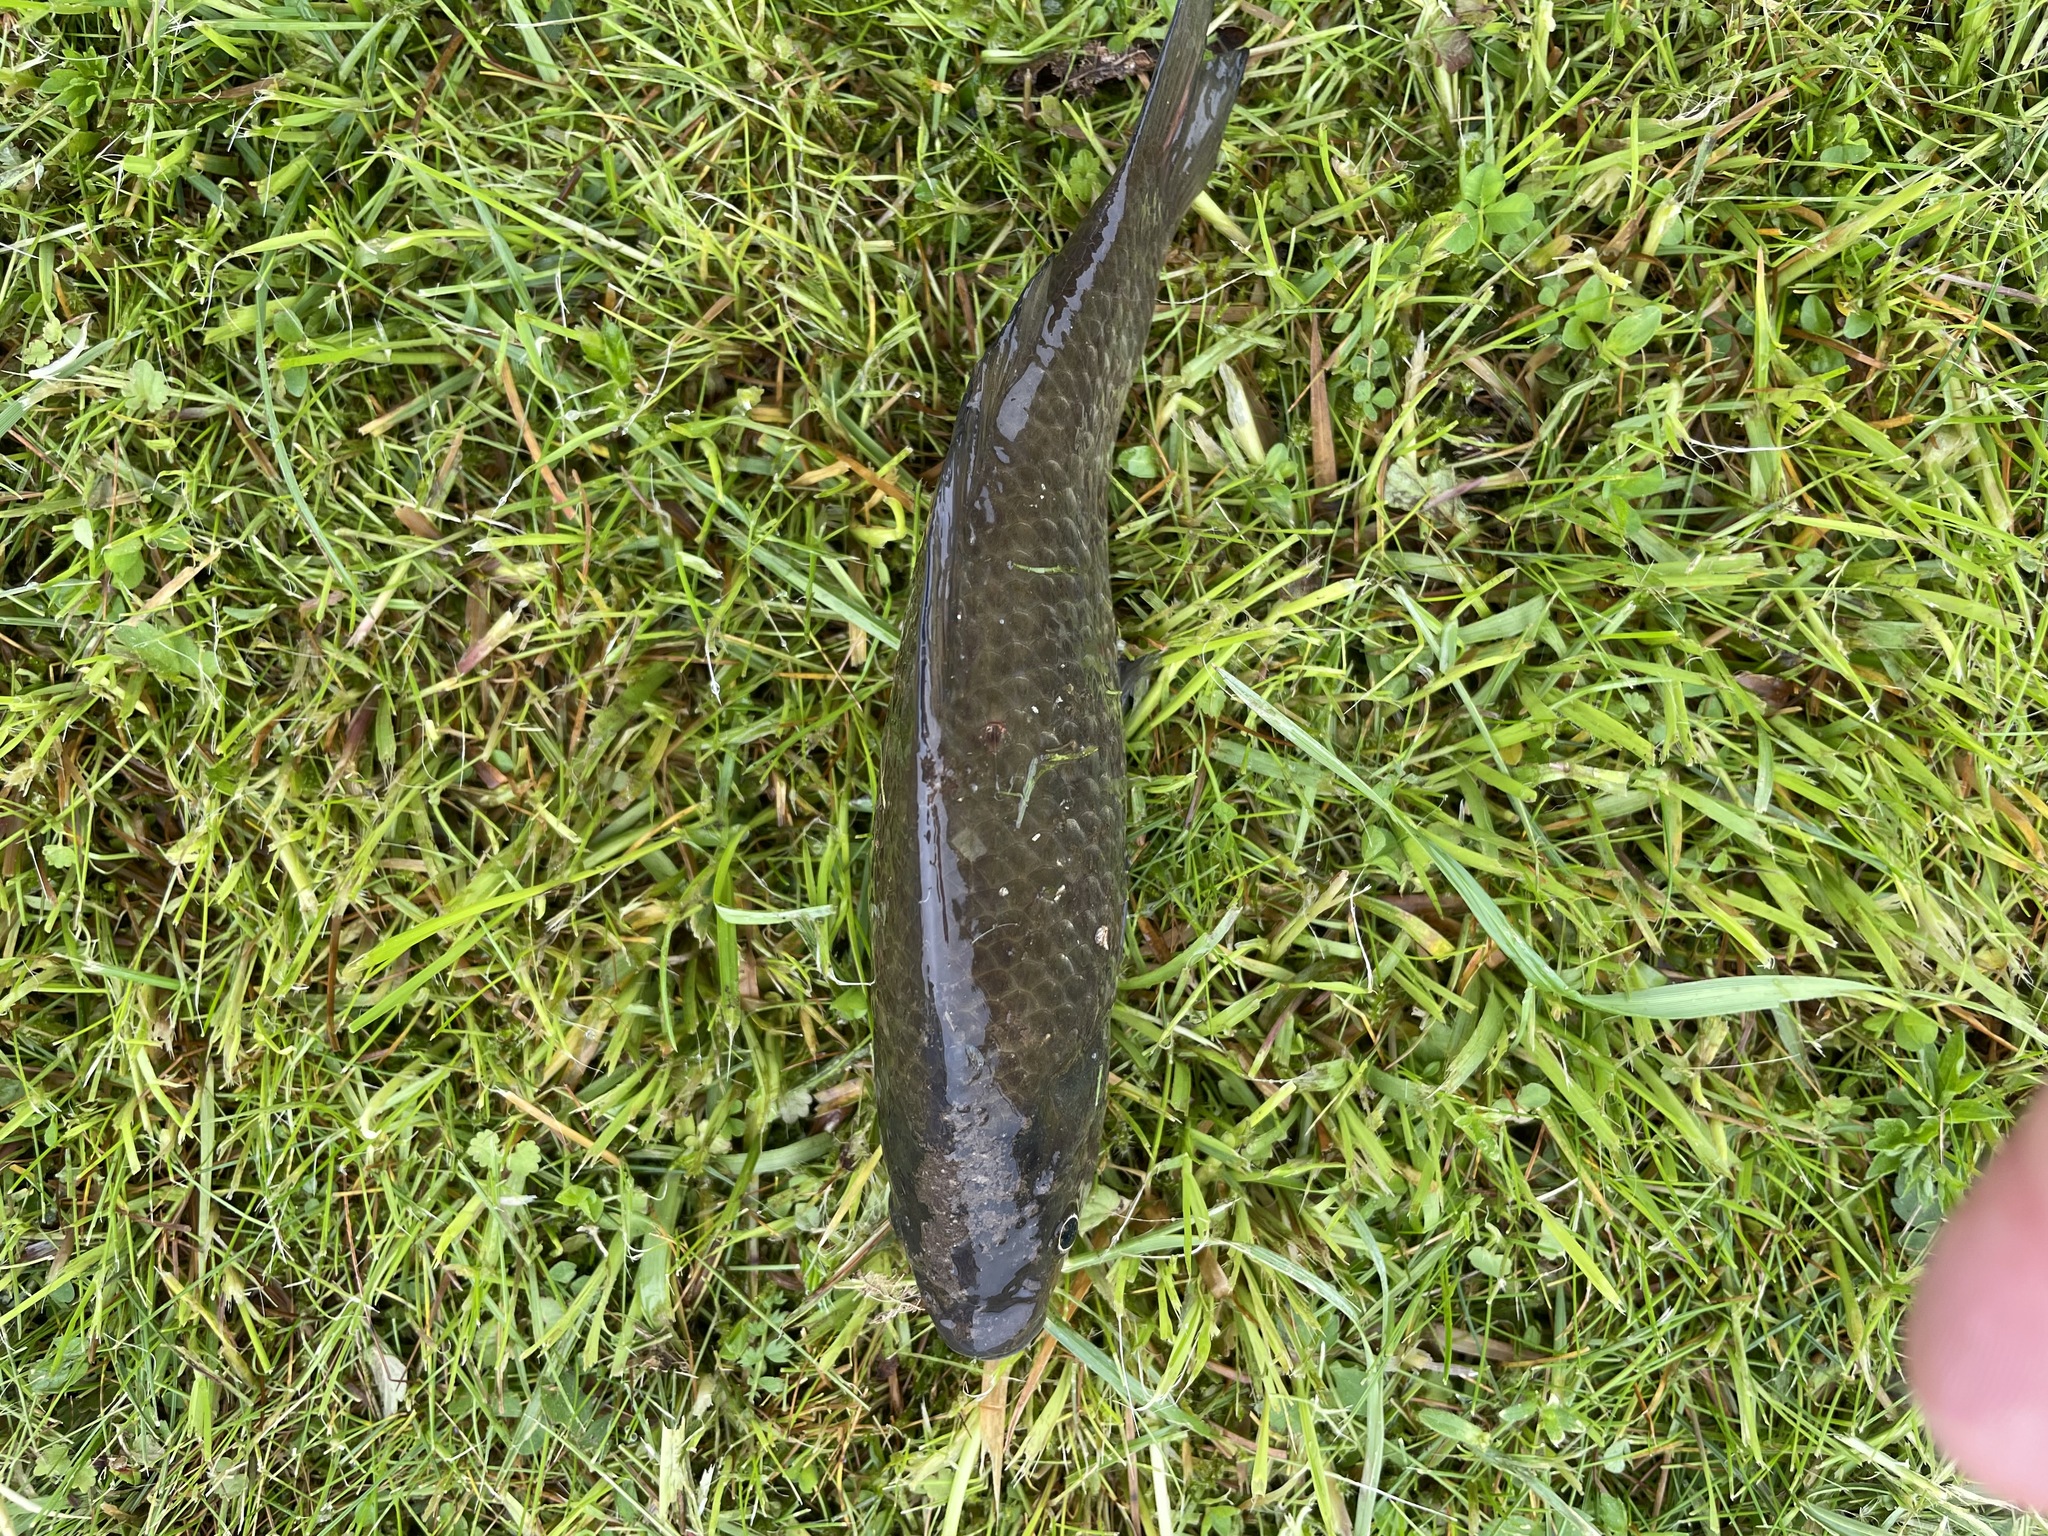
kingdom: Animalia
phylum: Chordata
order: Cypriniformes
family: Cyprinidae
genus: Carassius
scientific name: Carassius gibelio
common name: Prussian carp
